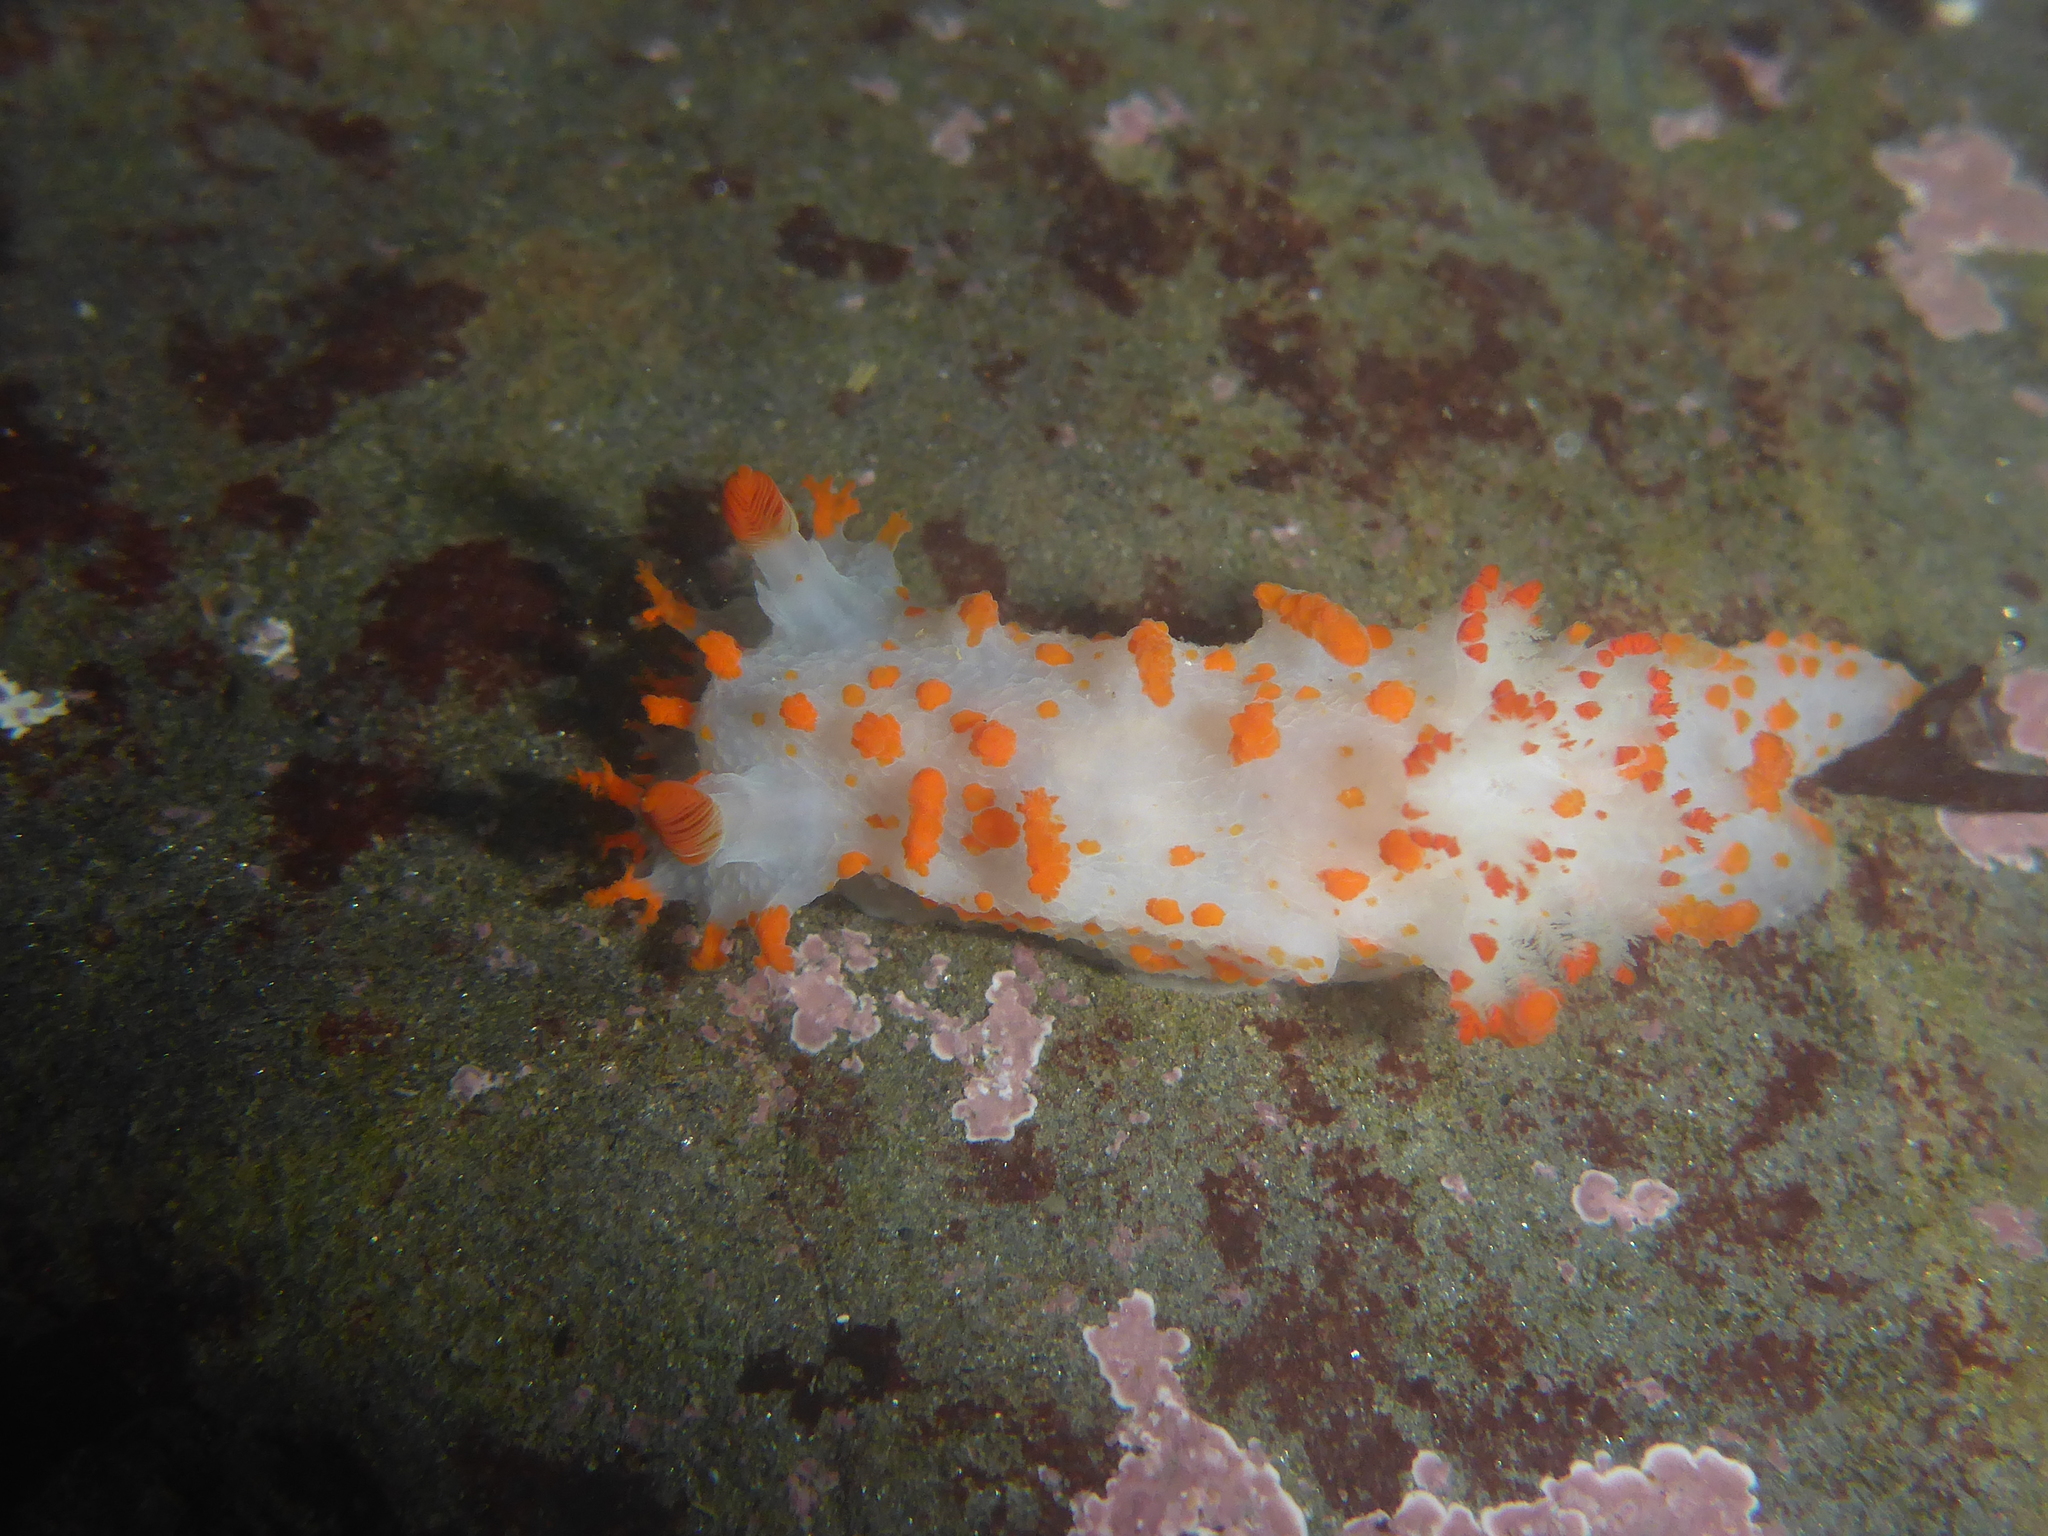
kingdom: Animalia
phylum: Mollusca
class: Gastropoda
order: Nudibranchia
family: Polyceridae
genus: Triopha
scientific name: Triopha catalinae
